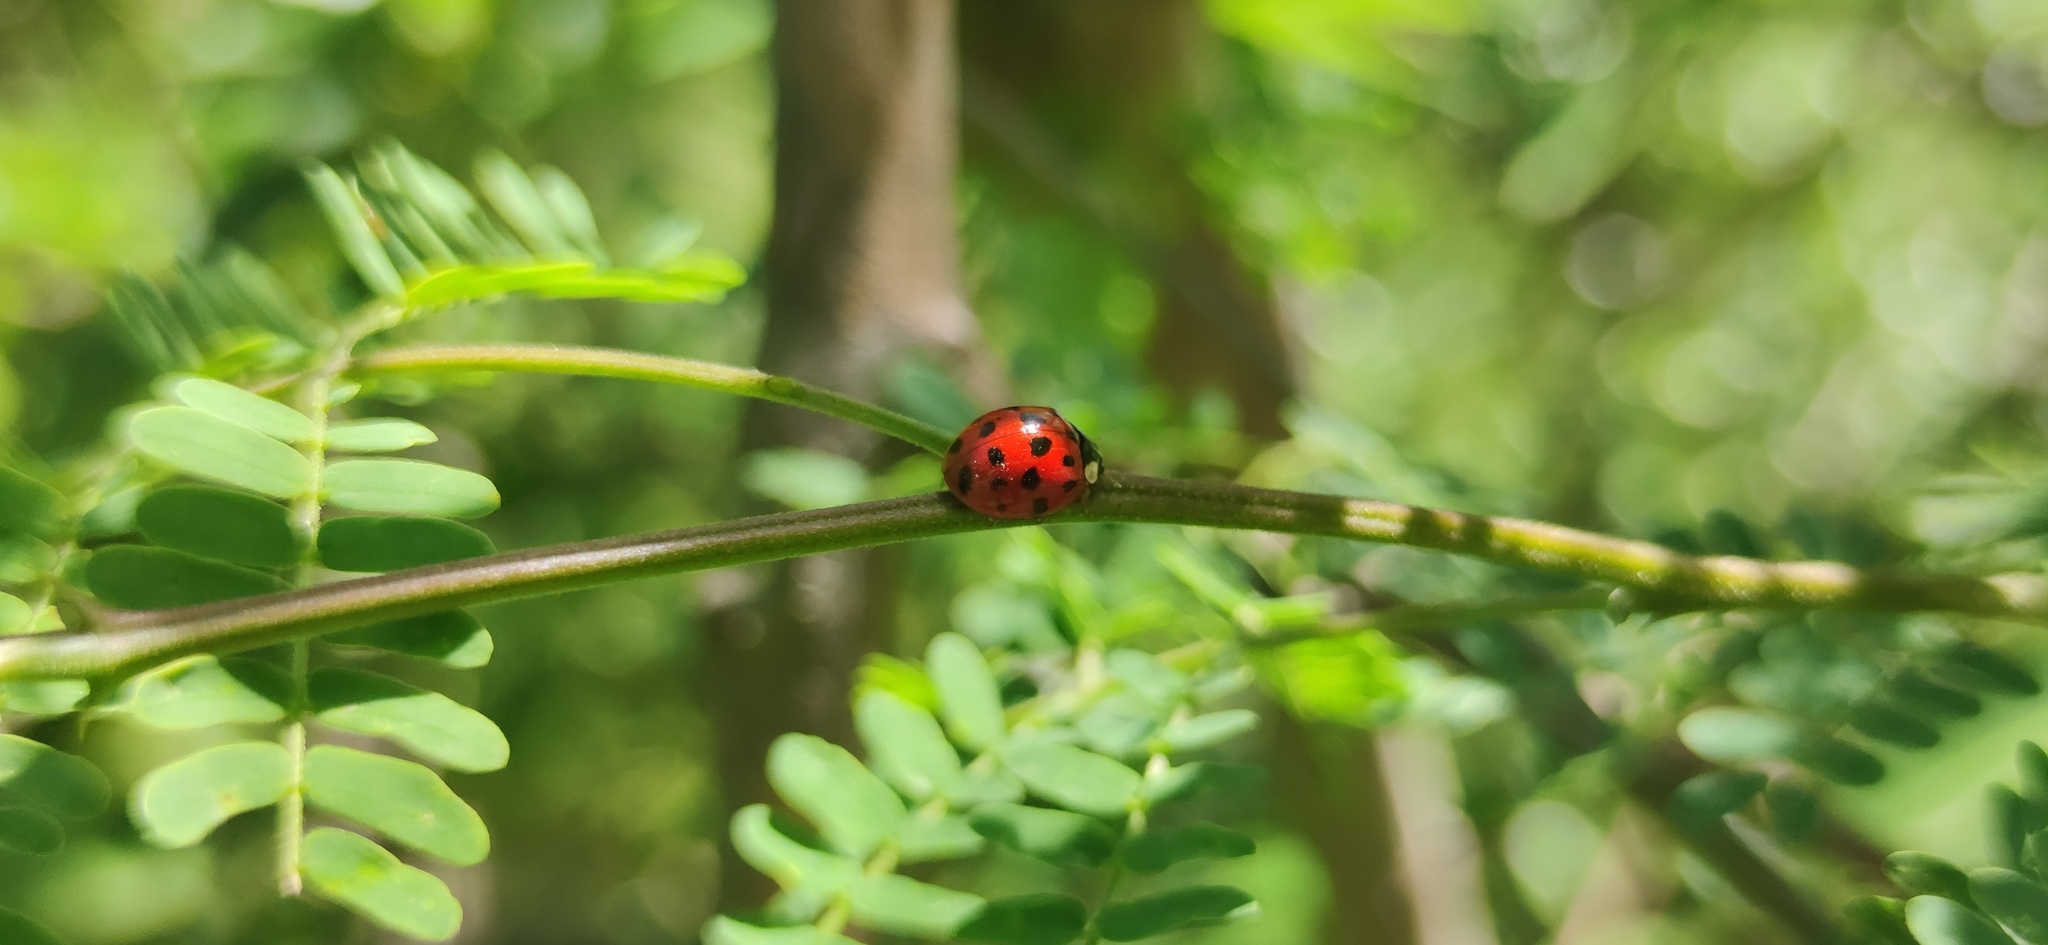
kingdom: Animalia
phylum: Arthropoda
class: Insecta
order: Coleoptera
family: Coccinellidae
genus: Harmonia
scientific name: Harmonia axyridis
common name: Harlequin ladybird
